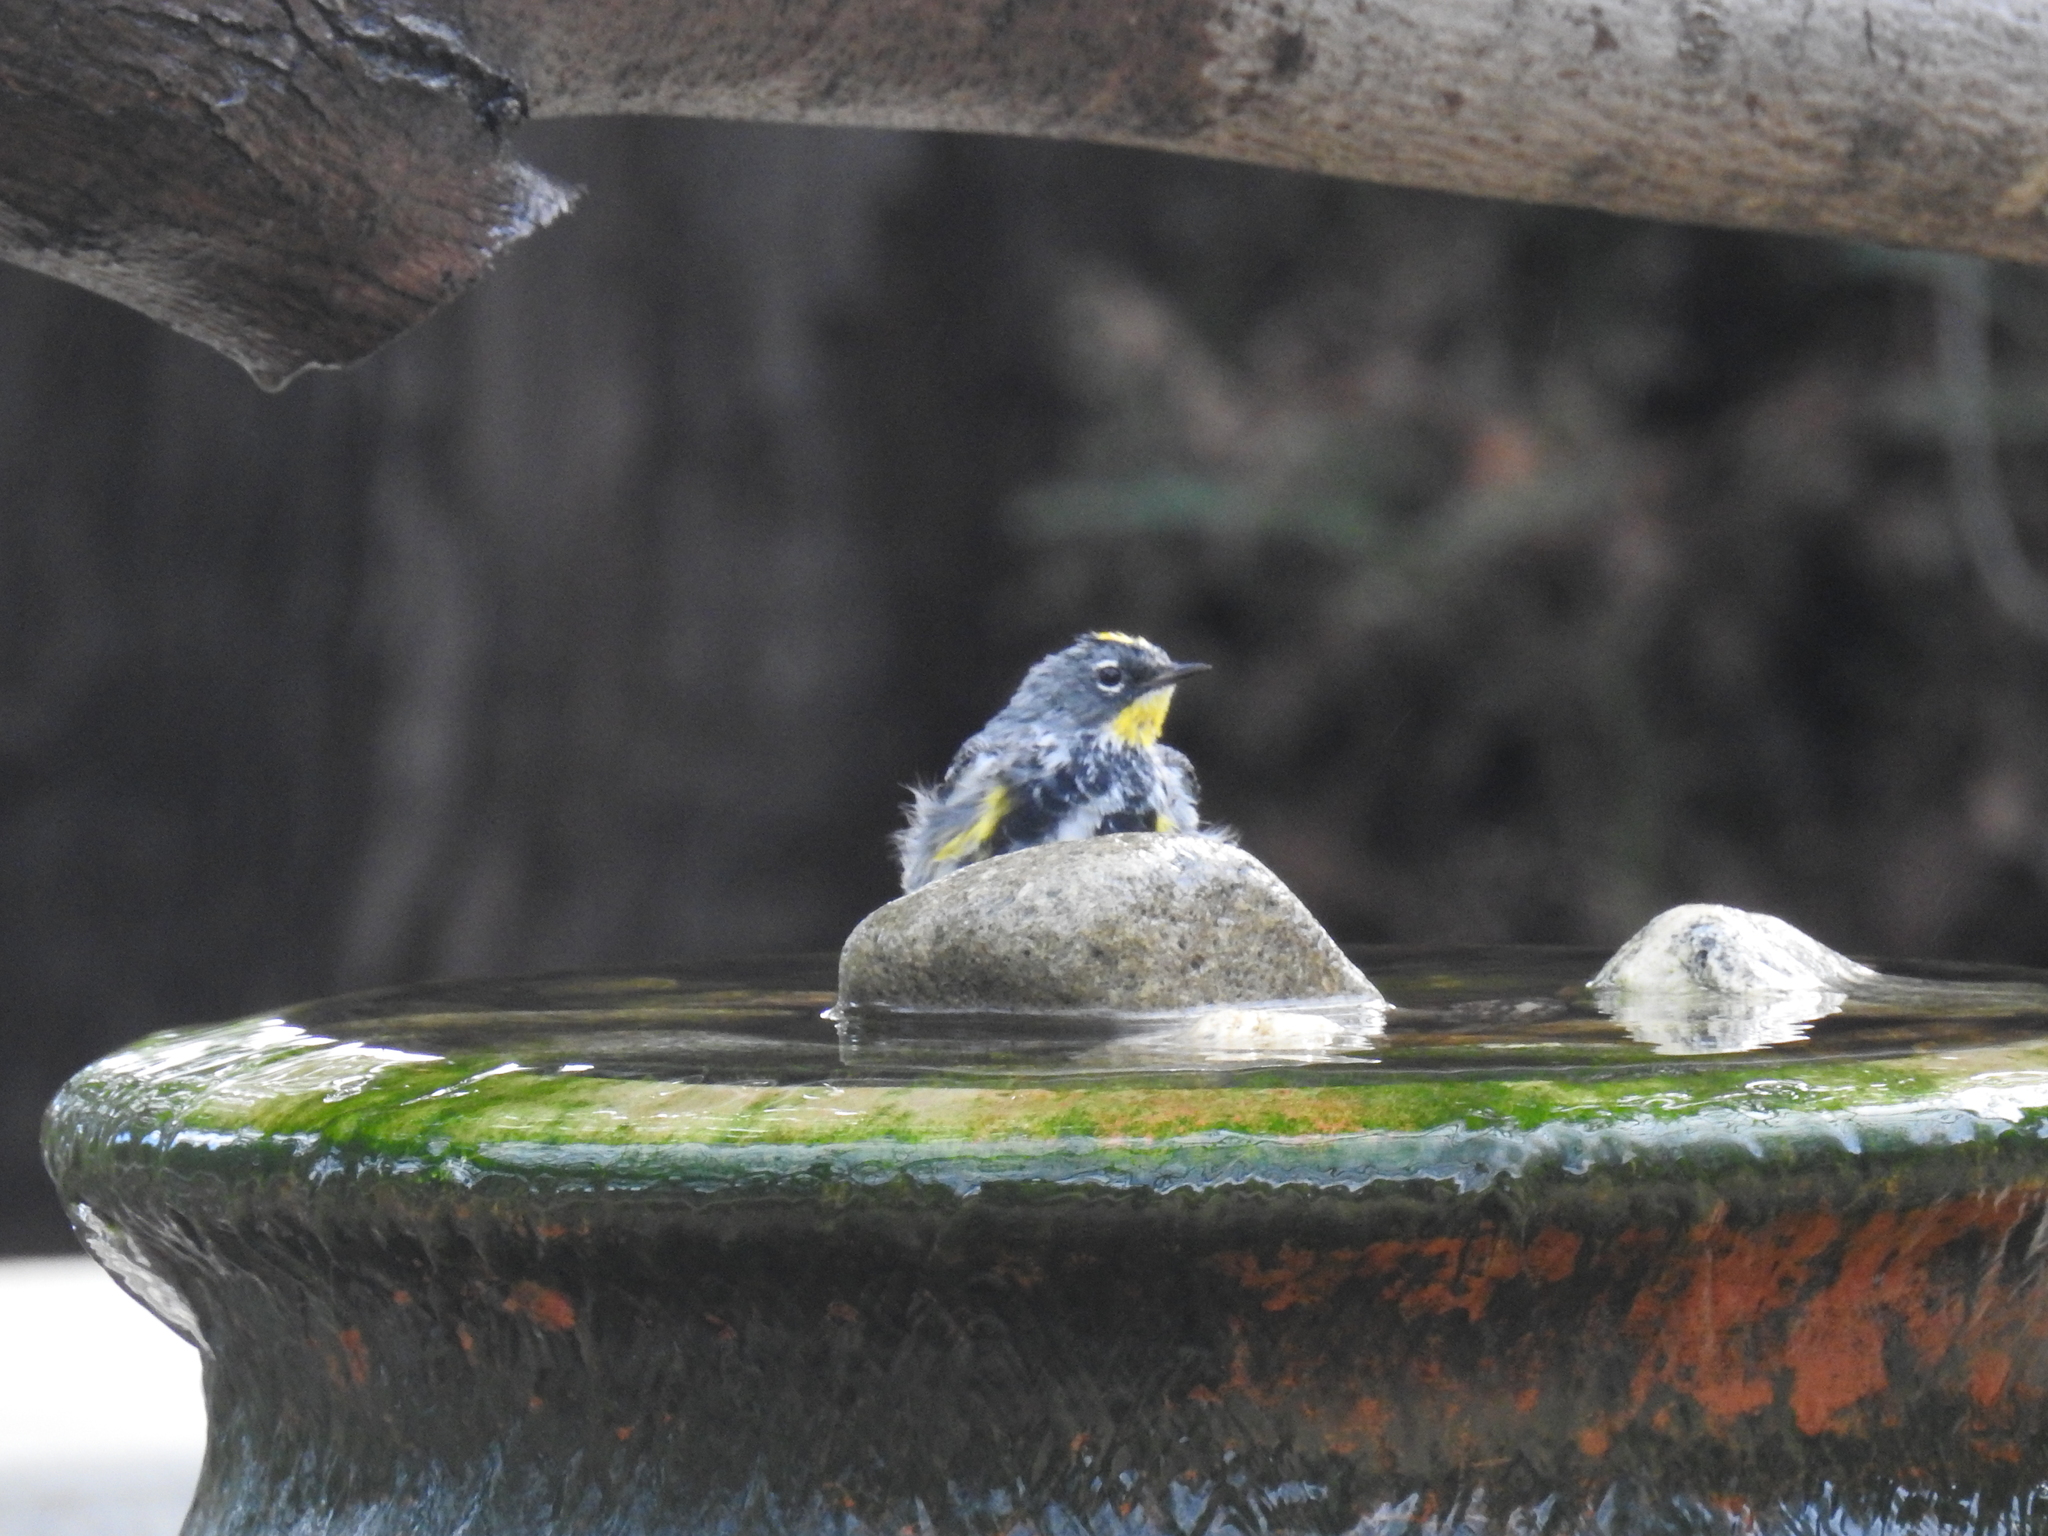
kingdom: Animalia
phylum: Chordata
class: Aves
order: Passeriformes
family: Parulidae
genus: Setophaga
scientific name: Setophaga coronata
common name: Myrtle warbler
